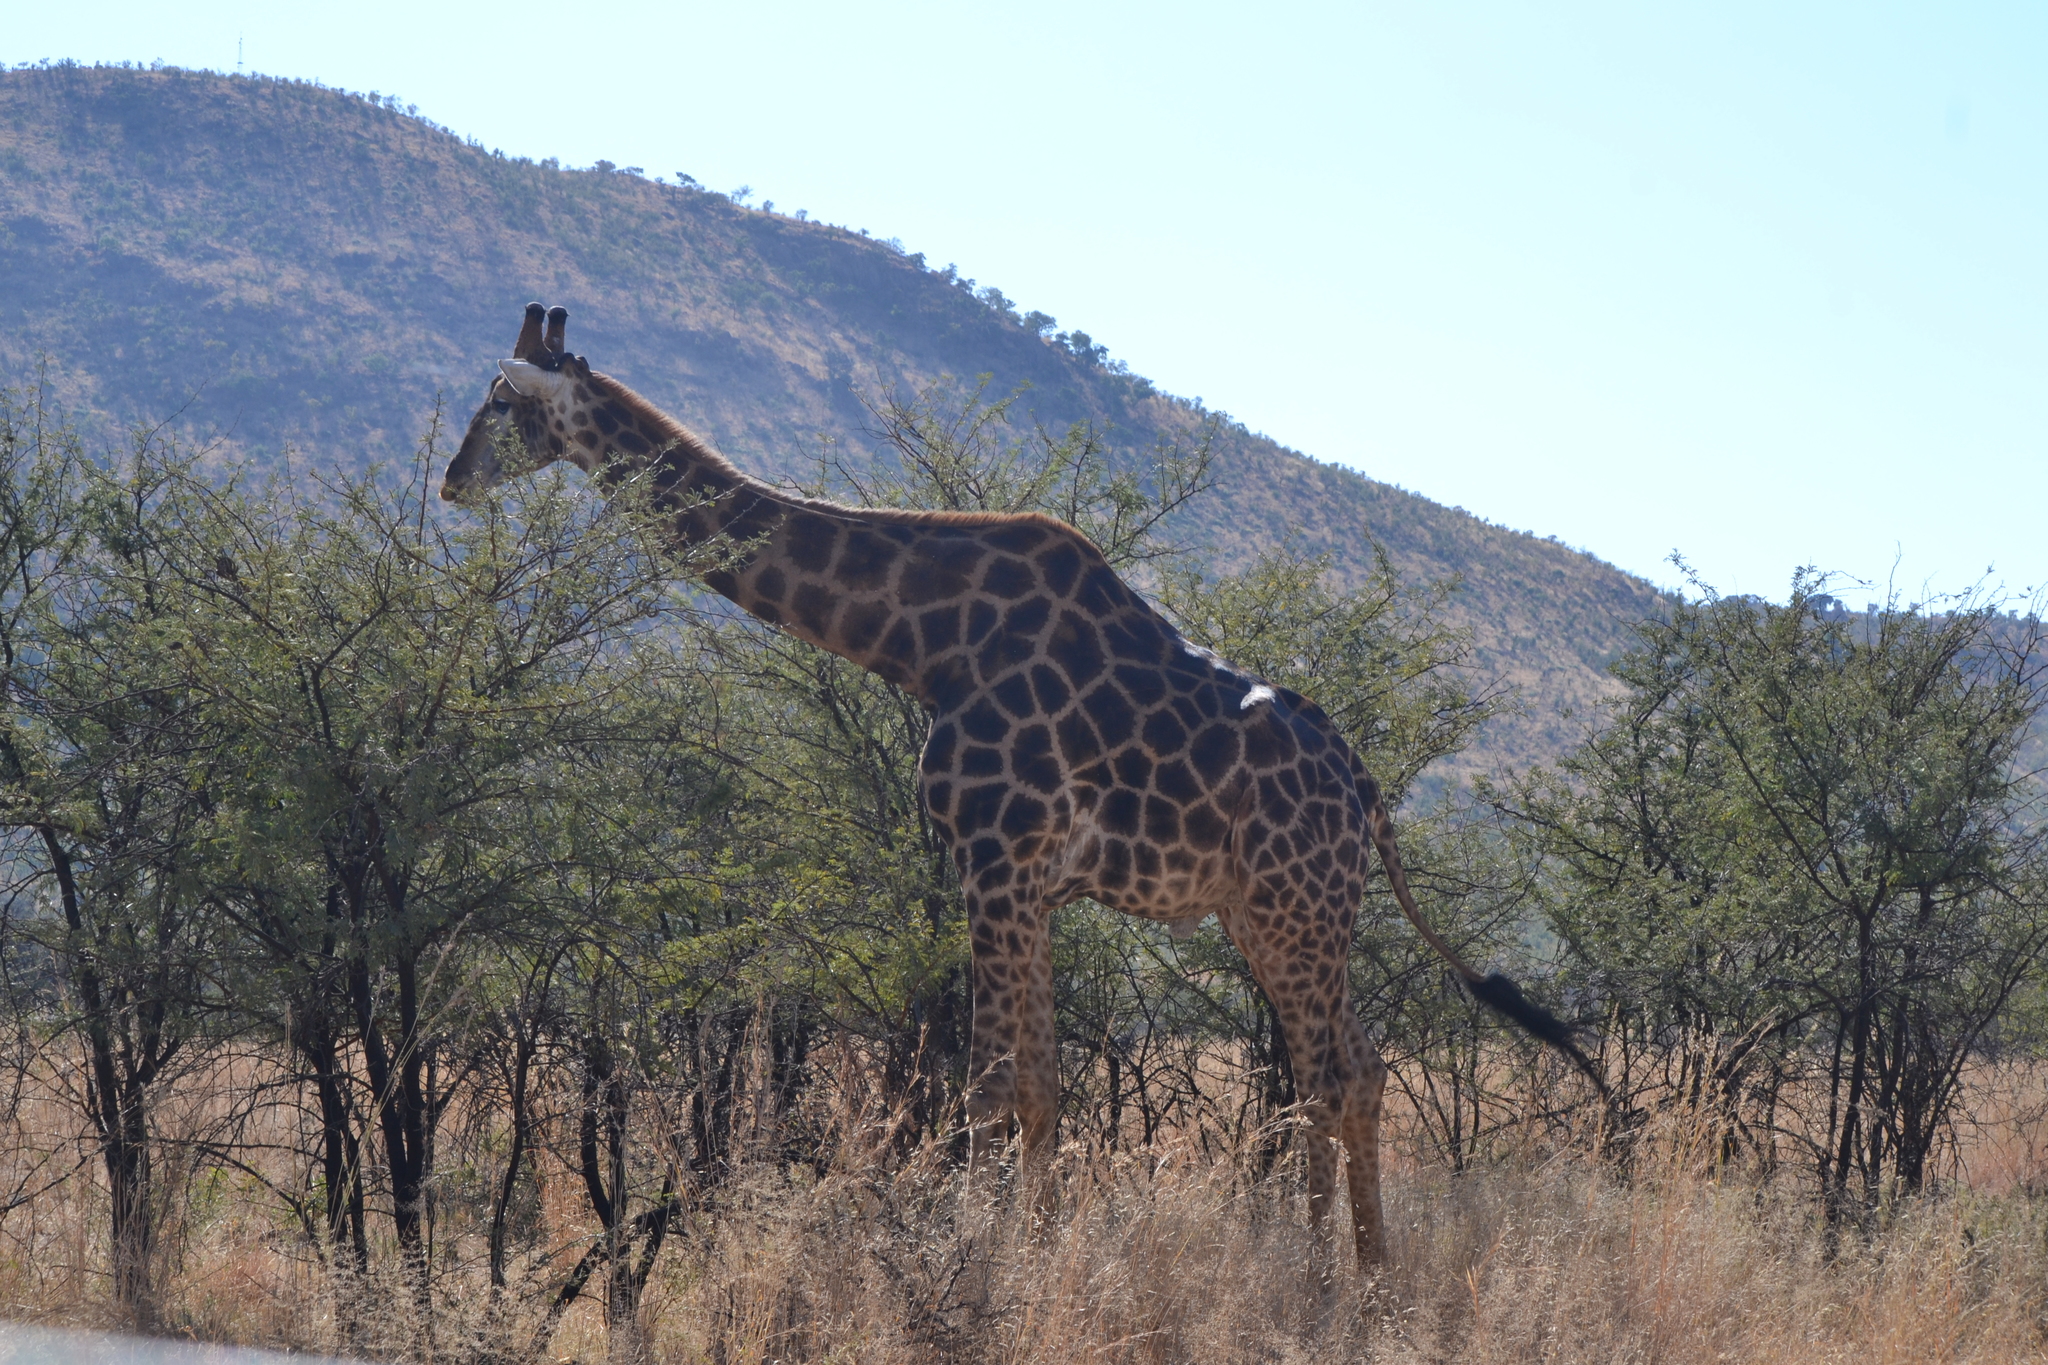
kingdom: Animalia
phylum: Chordata
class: Mammalia
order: Artiodactyla
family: Giraffidae
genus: Giraffa
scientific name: Giraffa giraffa
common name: Southern giraffe
